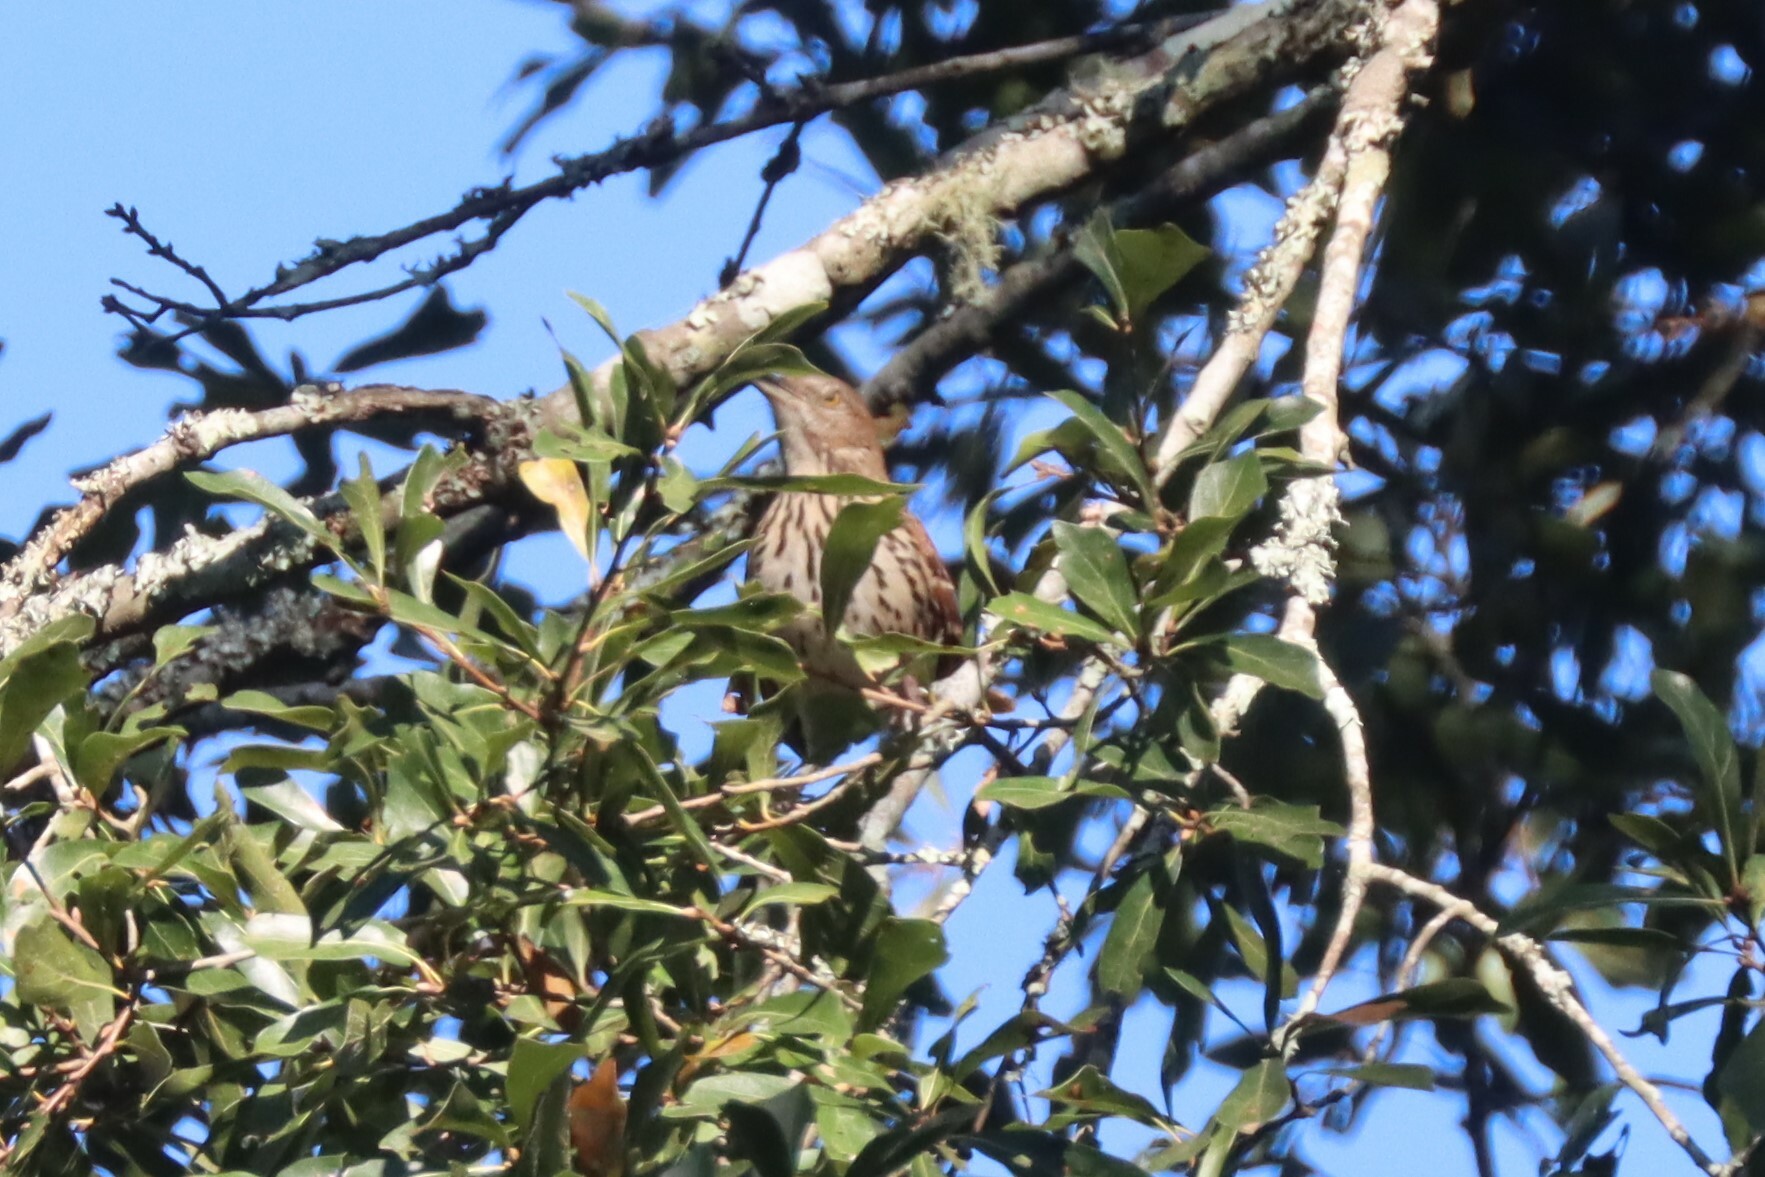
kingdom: Animalia
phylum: Chordata
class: Aves
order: Passeriformes
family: Mimidae
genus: Toxostoma
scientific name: Toxostoma rufum
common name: Brown thrasher
